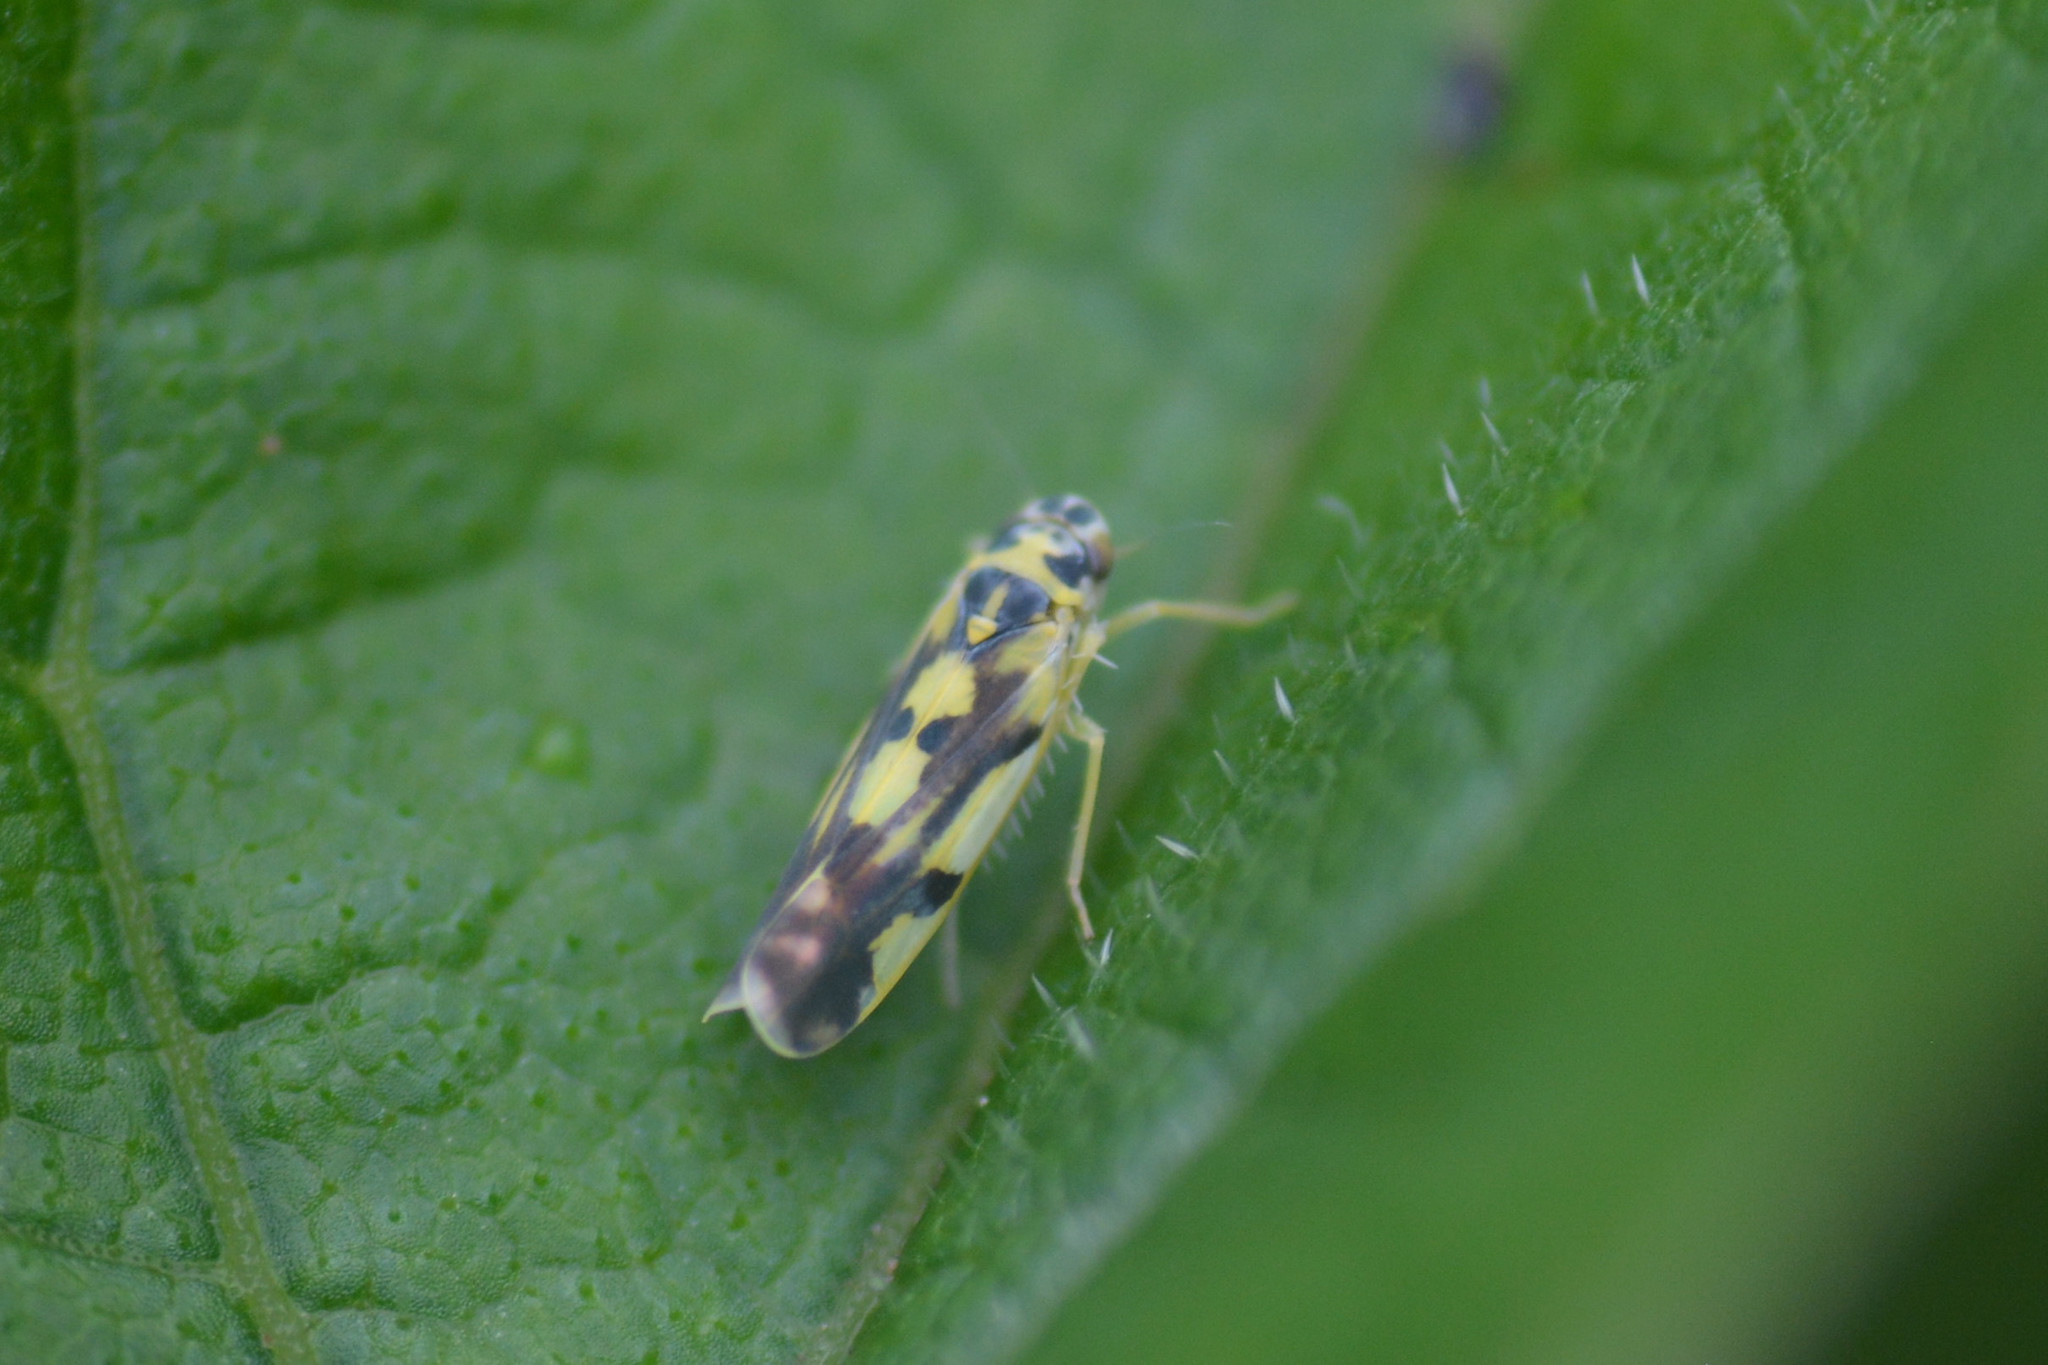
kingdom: Animalia
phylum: Arthropoda
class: Insecta
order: Hemiptera
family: Cicadellidae
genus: Eupteryx
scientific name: Eupteryx aurata
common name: Leafhopper
